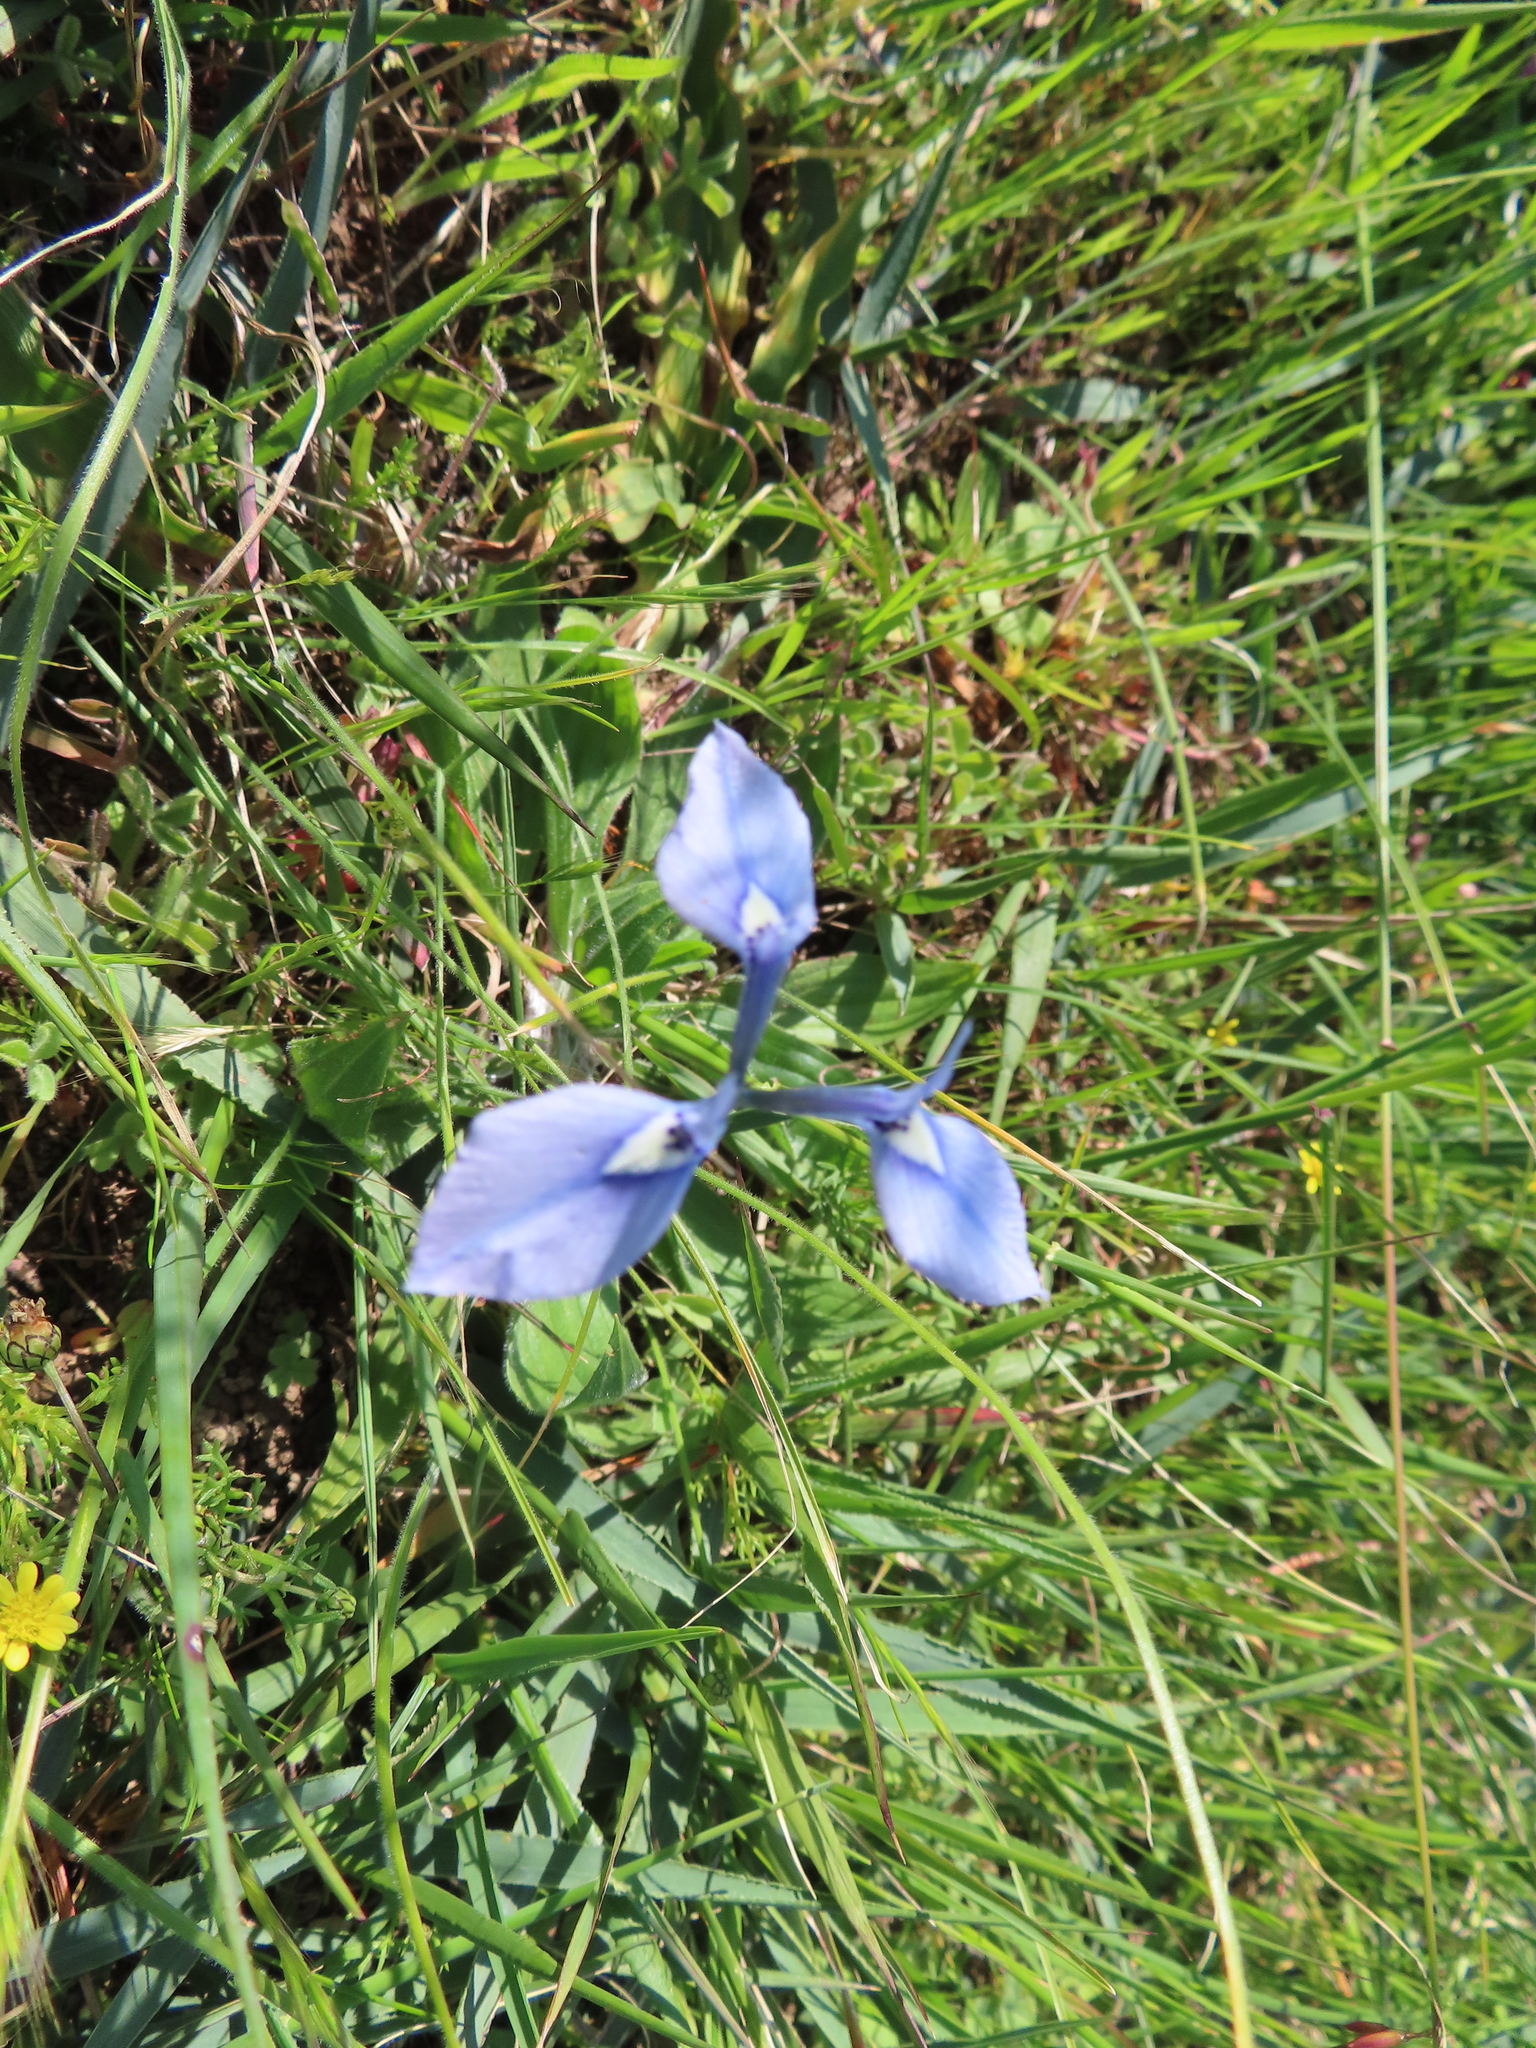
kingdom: Plantae
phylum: Tracheophyta
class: Liliopsida
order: Asparagales
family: Iridaceae
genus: Moraea
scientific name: Moraea tripetala
